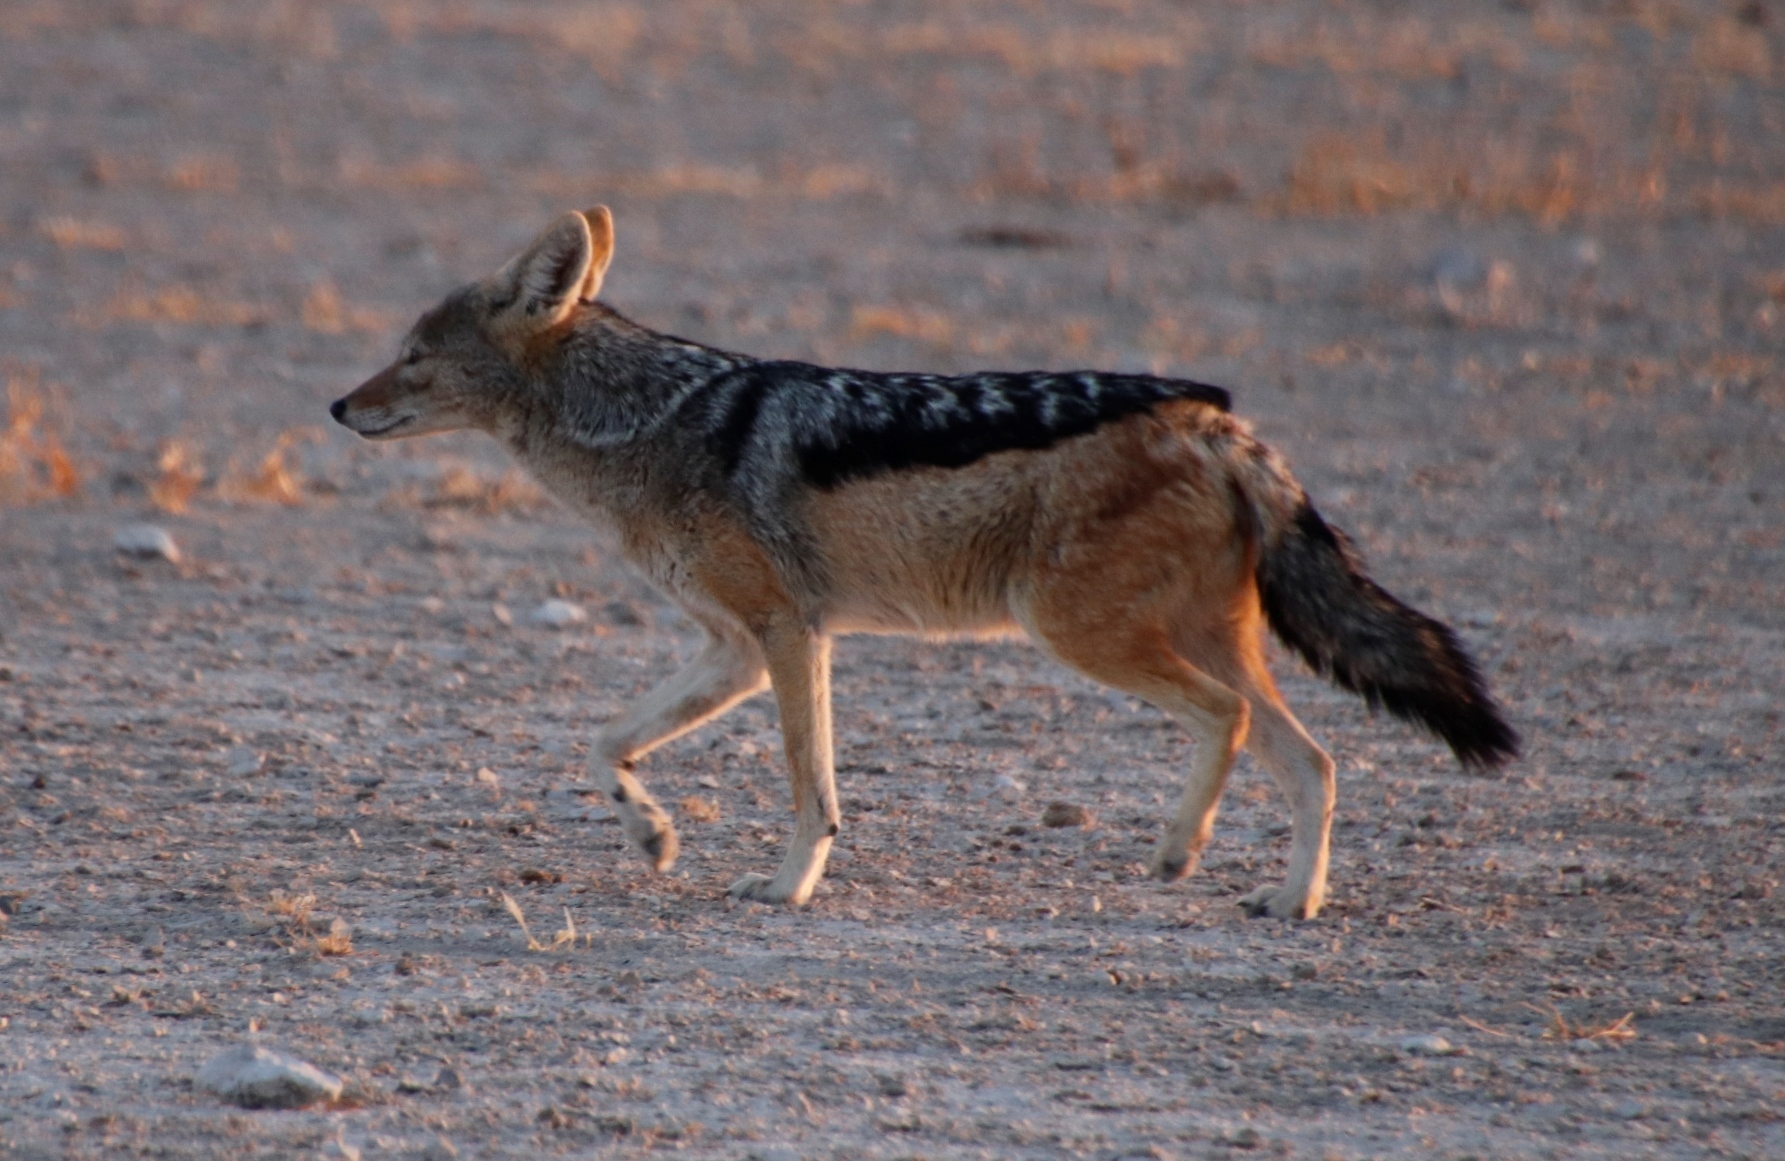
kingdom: Animalia
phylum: Chordata
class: Mammalia
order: Carnivora
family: Canidae
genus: Lupulella
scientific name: Lupulella
